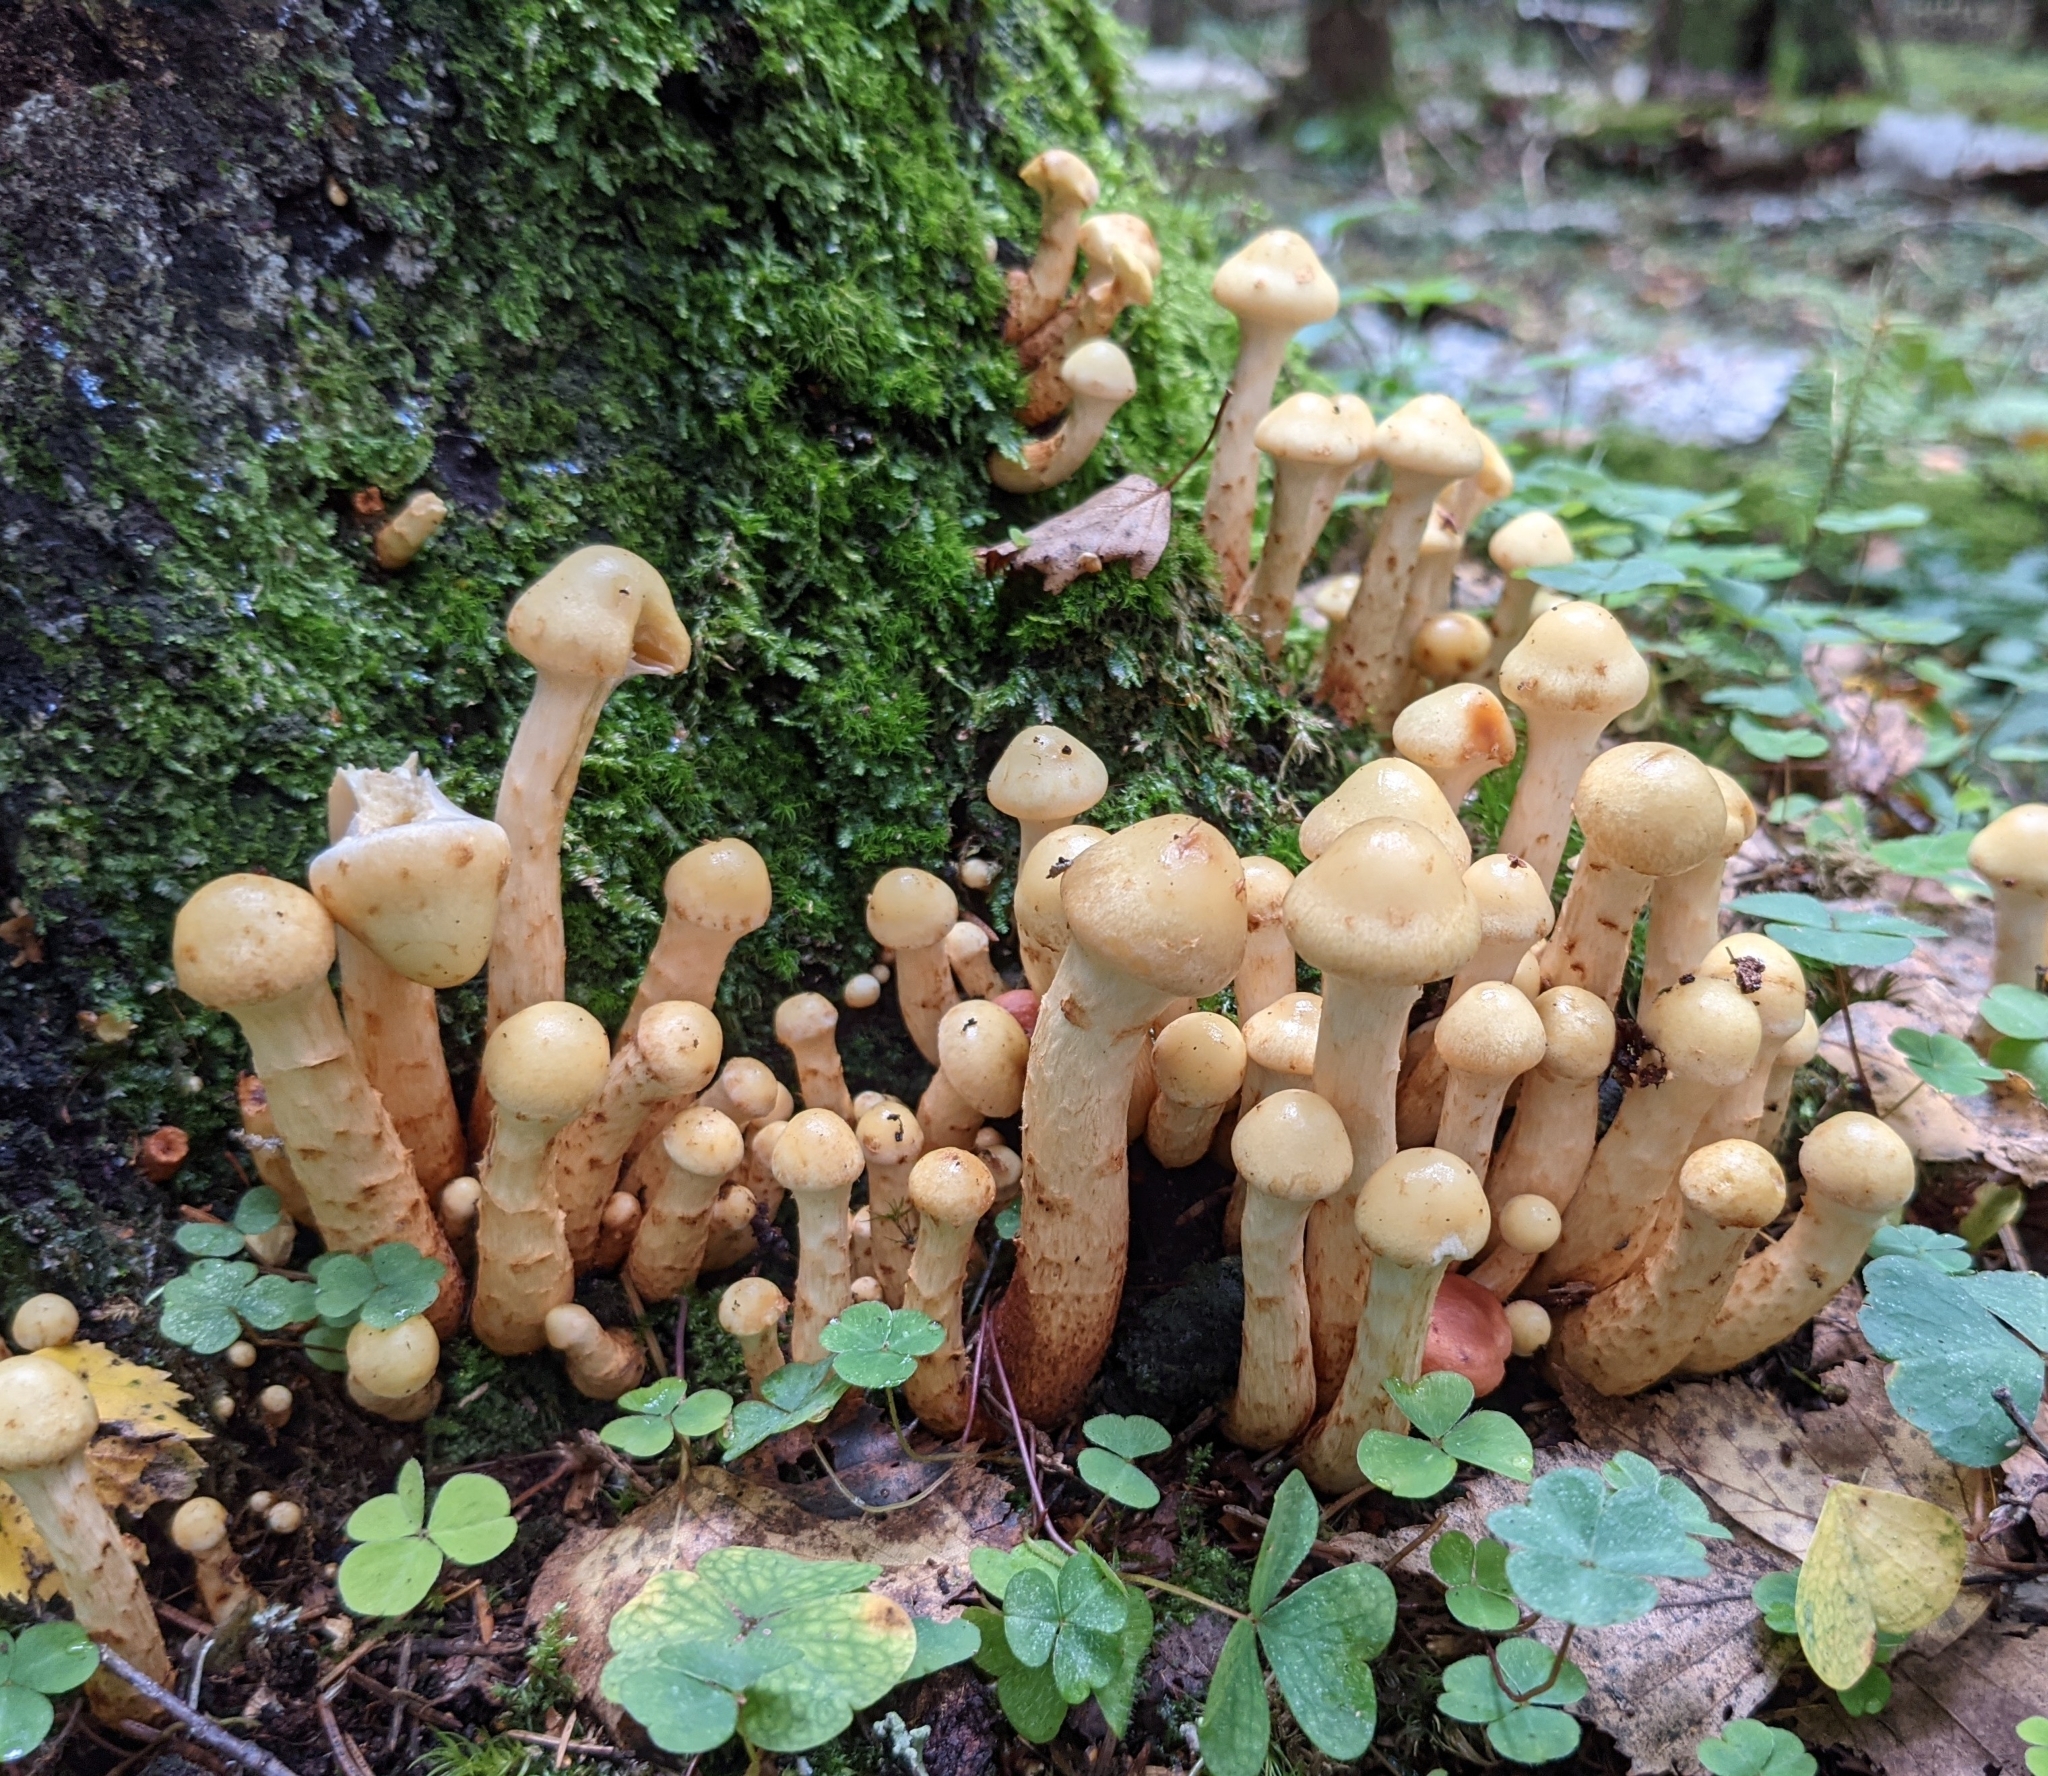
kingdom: Fungi
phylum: Basidiomycota
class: Agaricomycetes
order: Agaricales
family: Hymenogastraceae
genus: Flammula
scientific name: Flammula alnicola
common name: Alder scalycap
